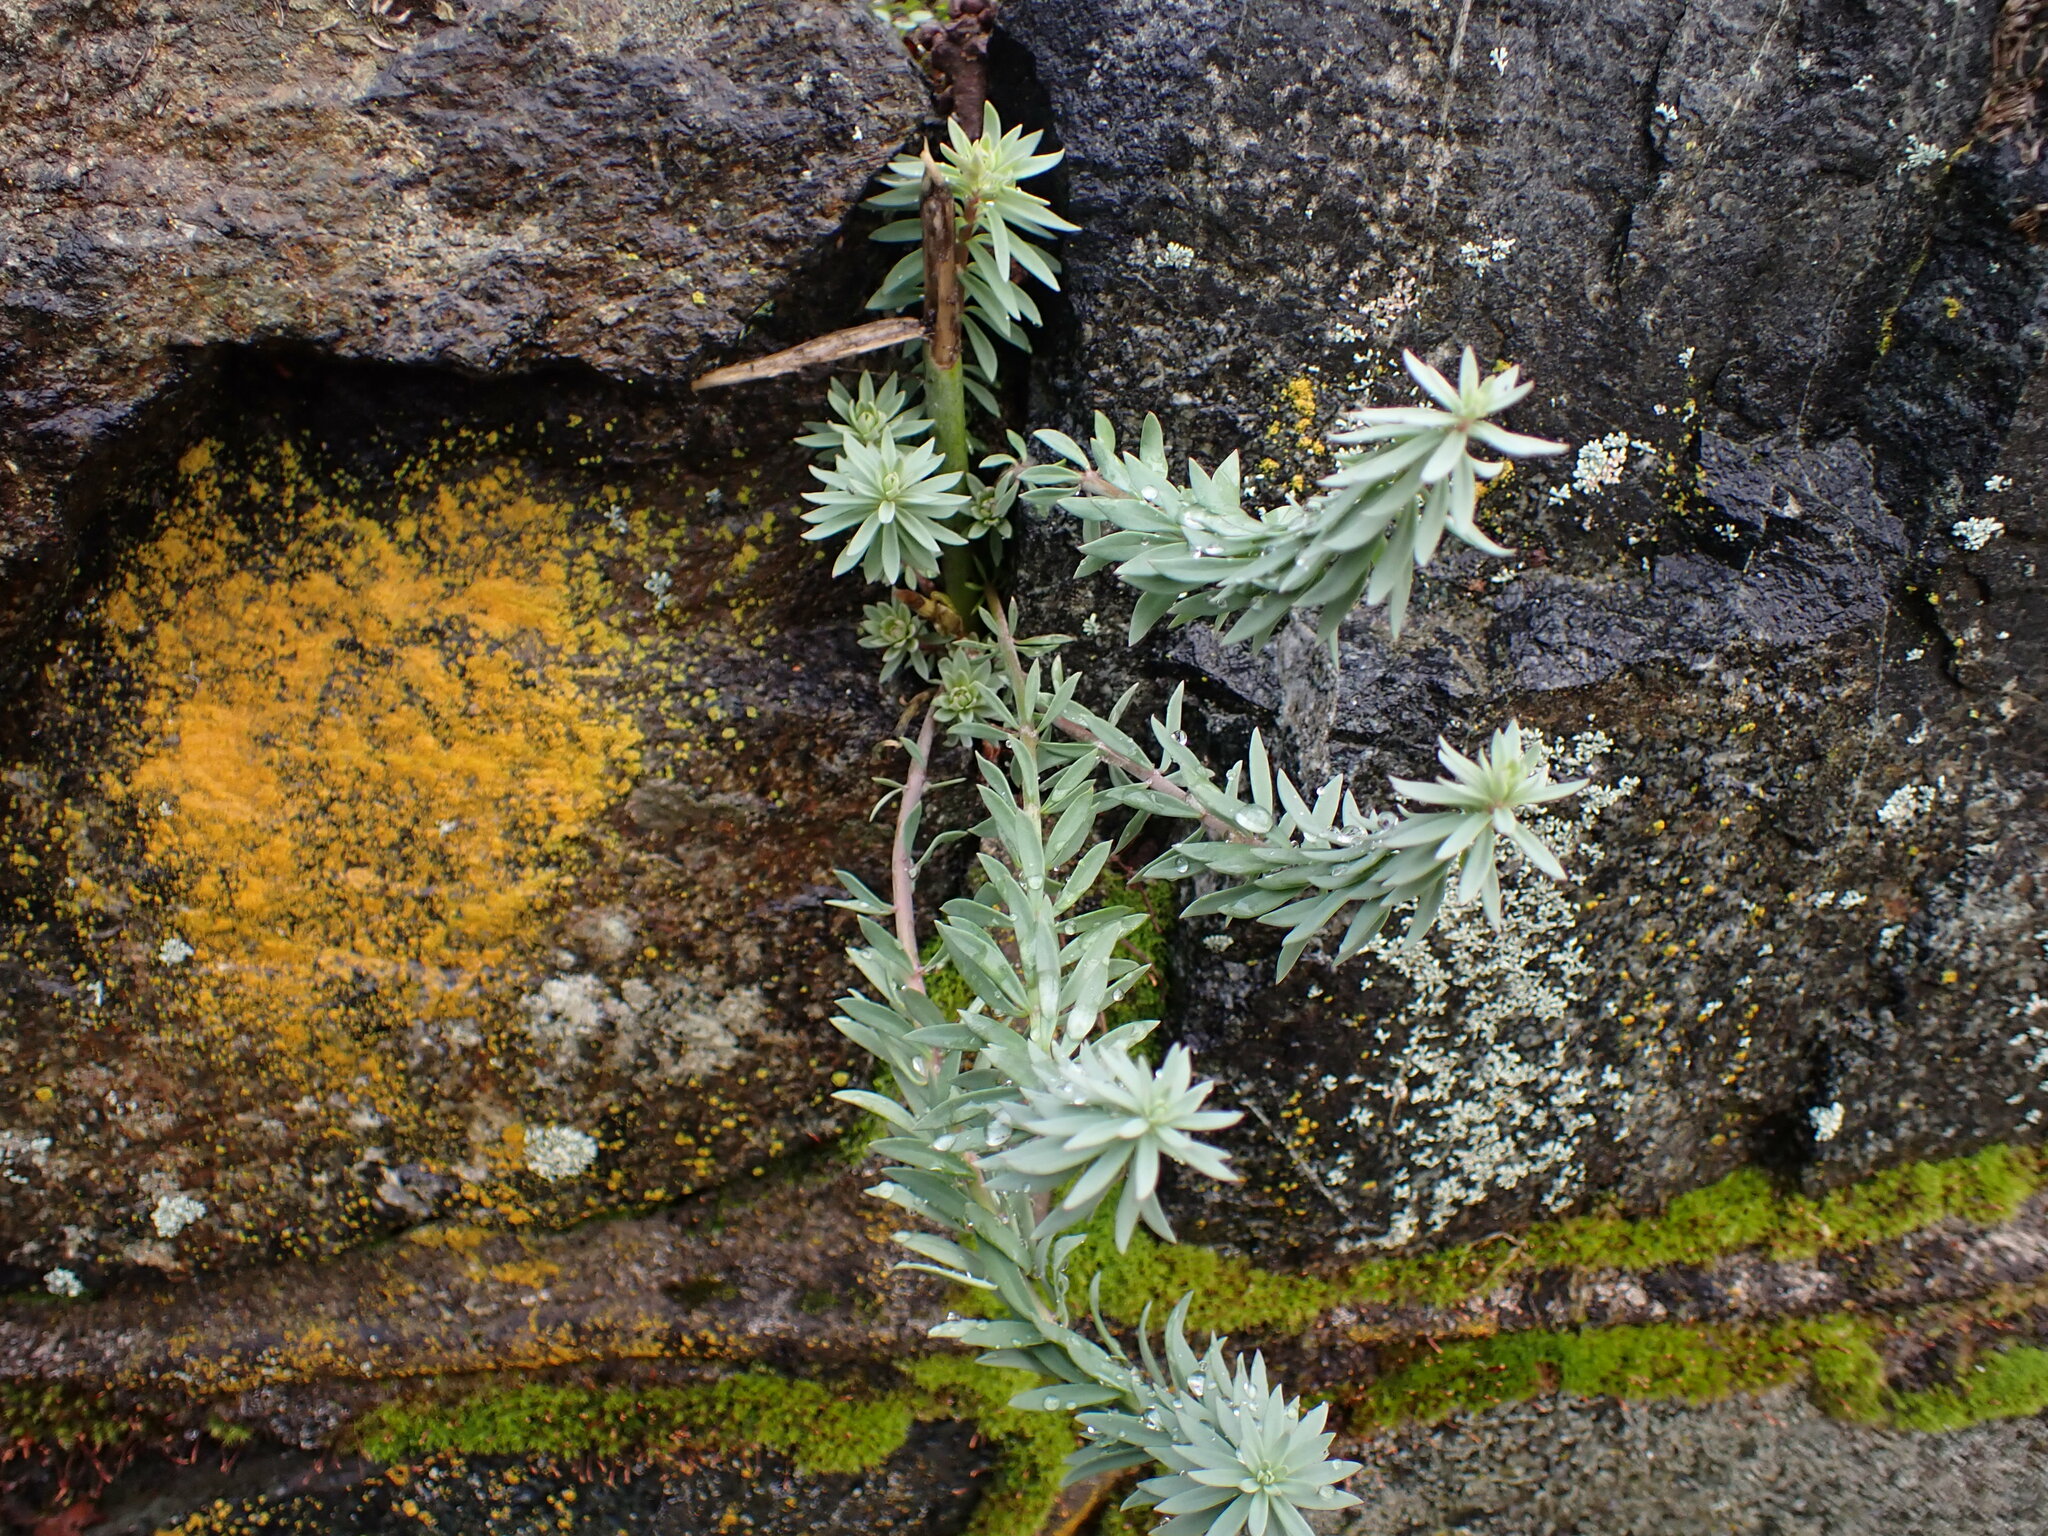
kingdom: Plantae
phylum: Tracheophyta
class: Magnoliopsida
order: Lamiales
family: Plantaginaceae
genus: Linaria
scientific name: Linaria purpurea
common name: Purple toadflax
